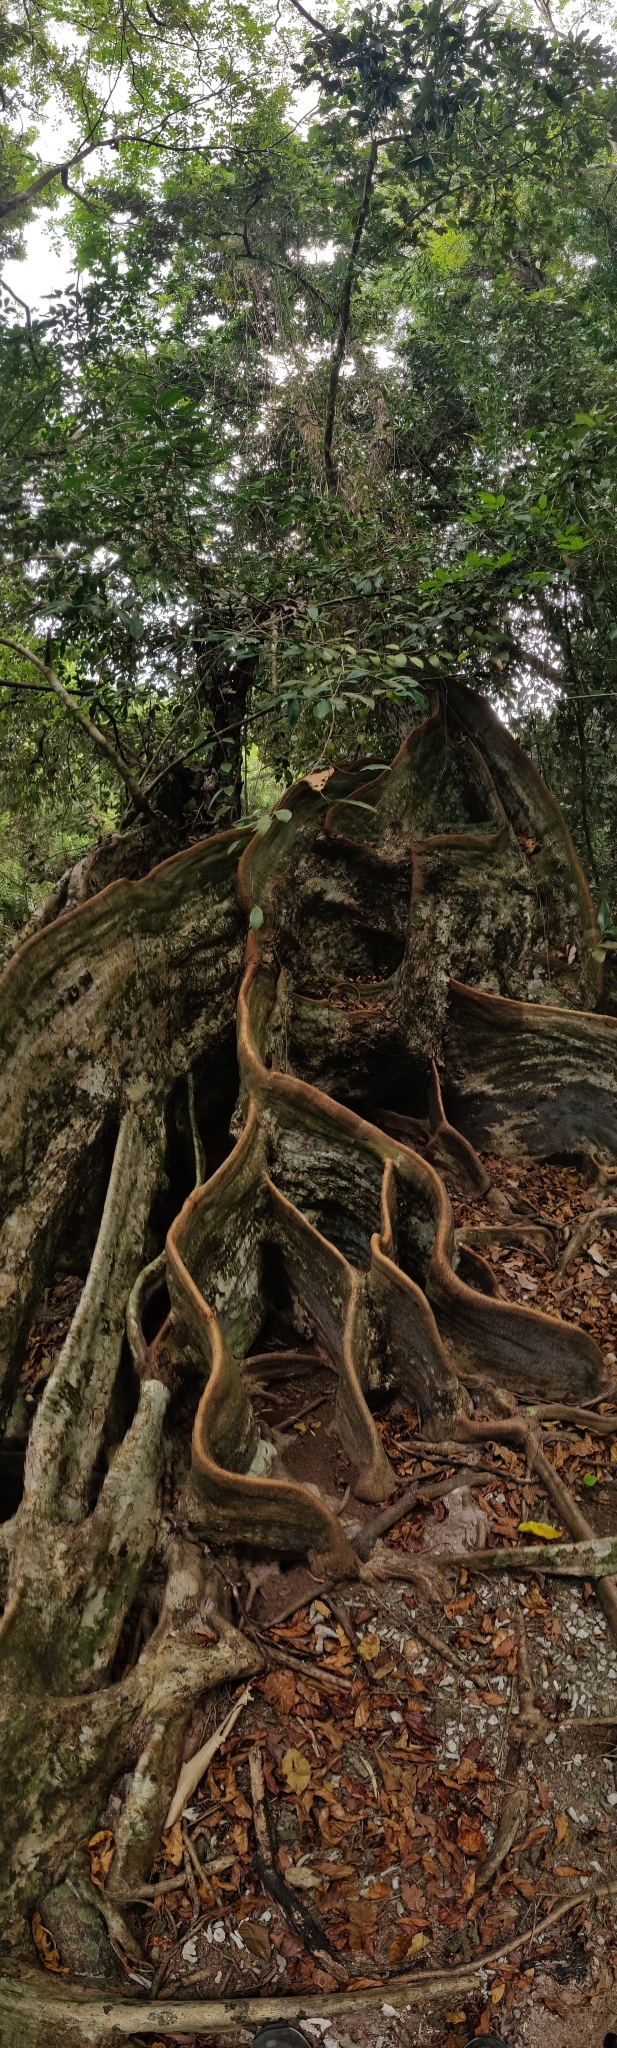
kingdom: Plantae
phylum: Tracheophyta
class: Magnoliopsida
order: Malvales
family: Malvaceae
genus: Heritiera
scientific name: Heritiera littoralis
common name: Looking-glass mangrove
